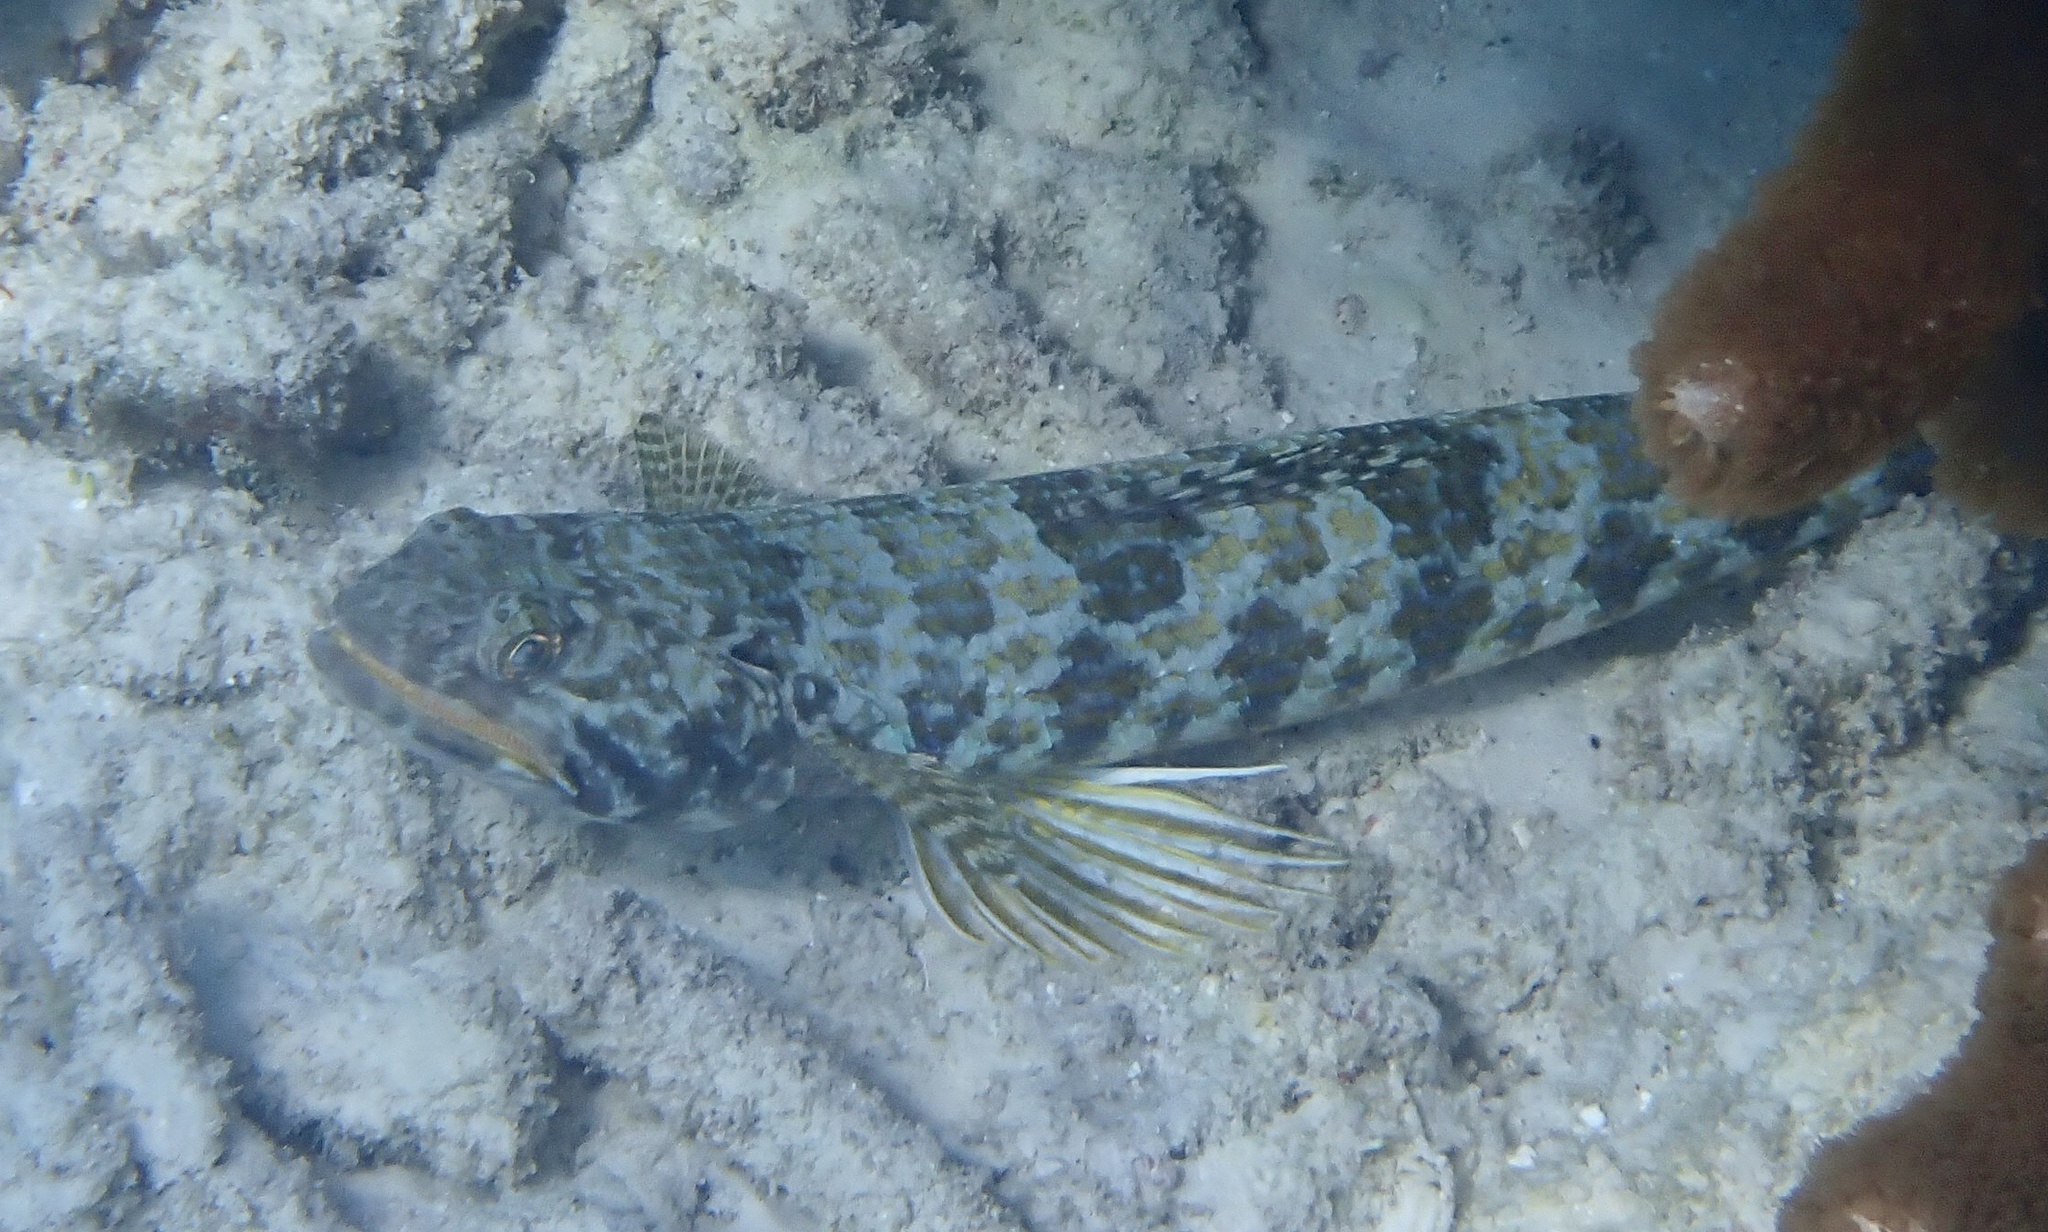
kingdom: Animalia
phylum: Chordata
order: Aulopiformes
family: Synodontidae
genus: Synodus
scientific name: Synodus intermedius
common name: Sand diver
